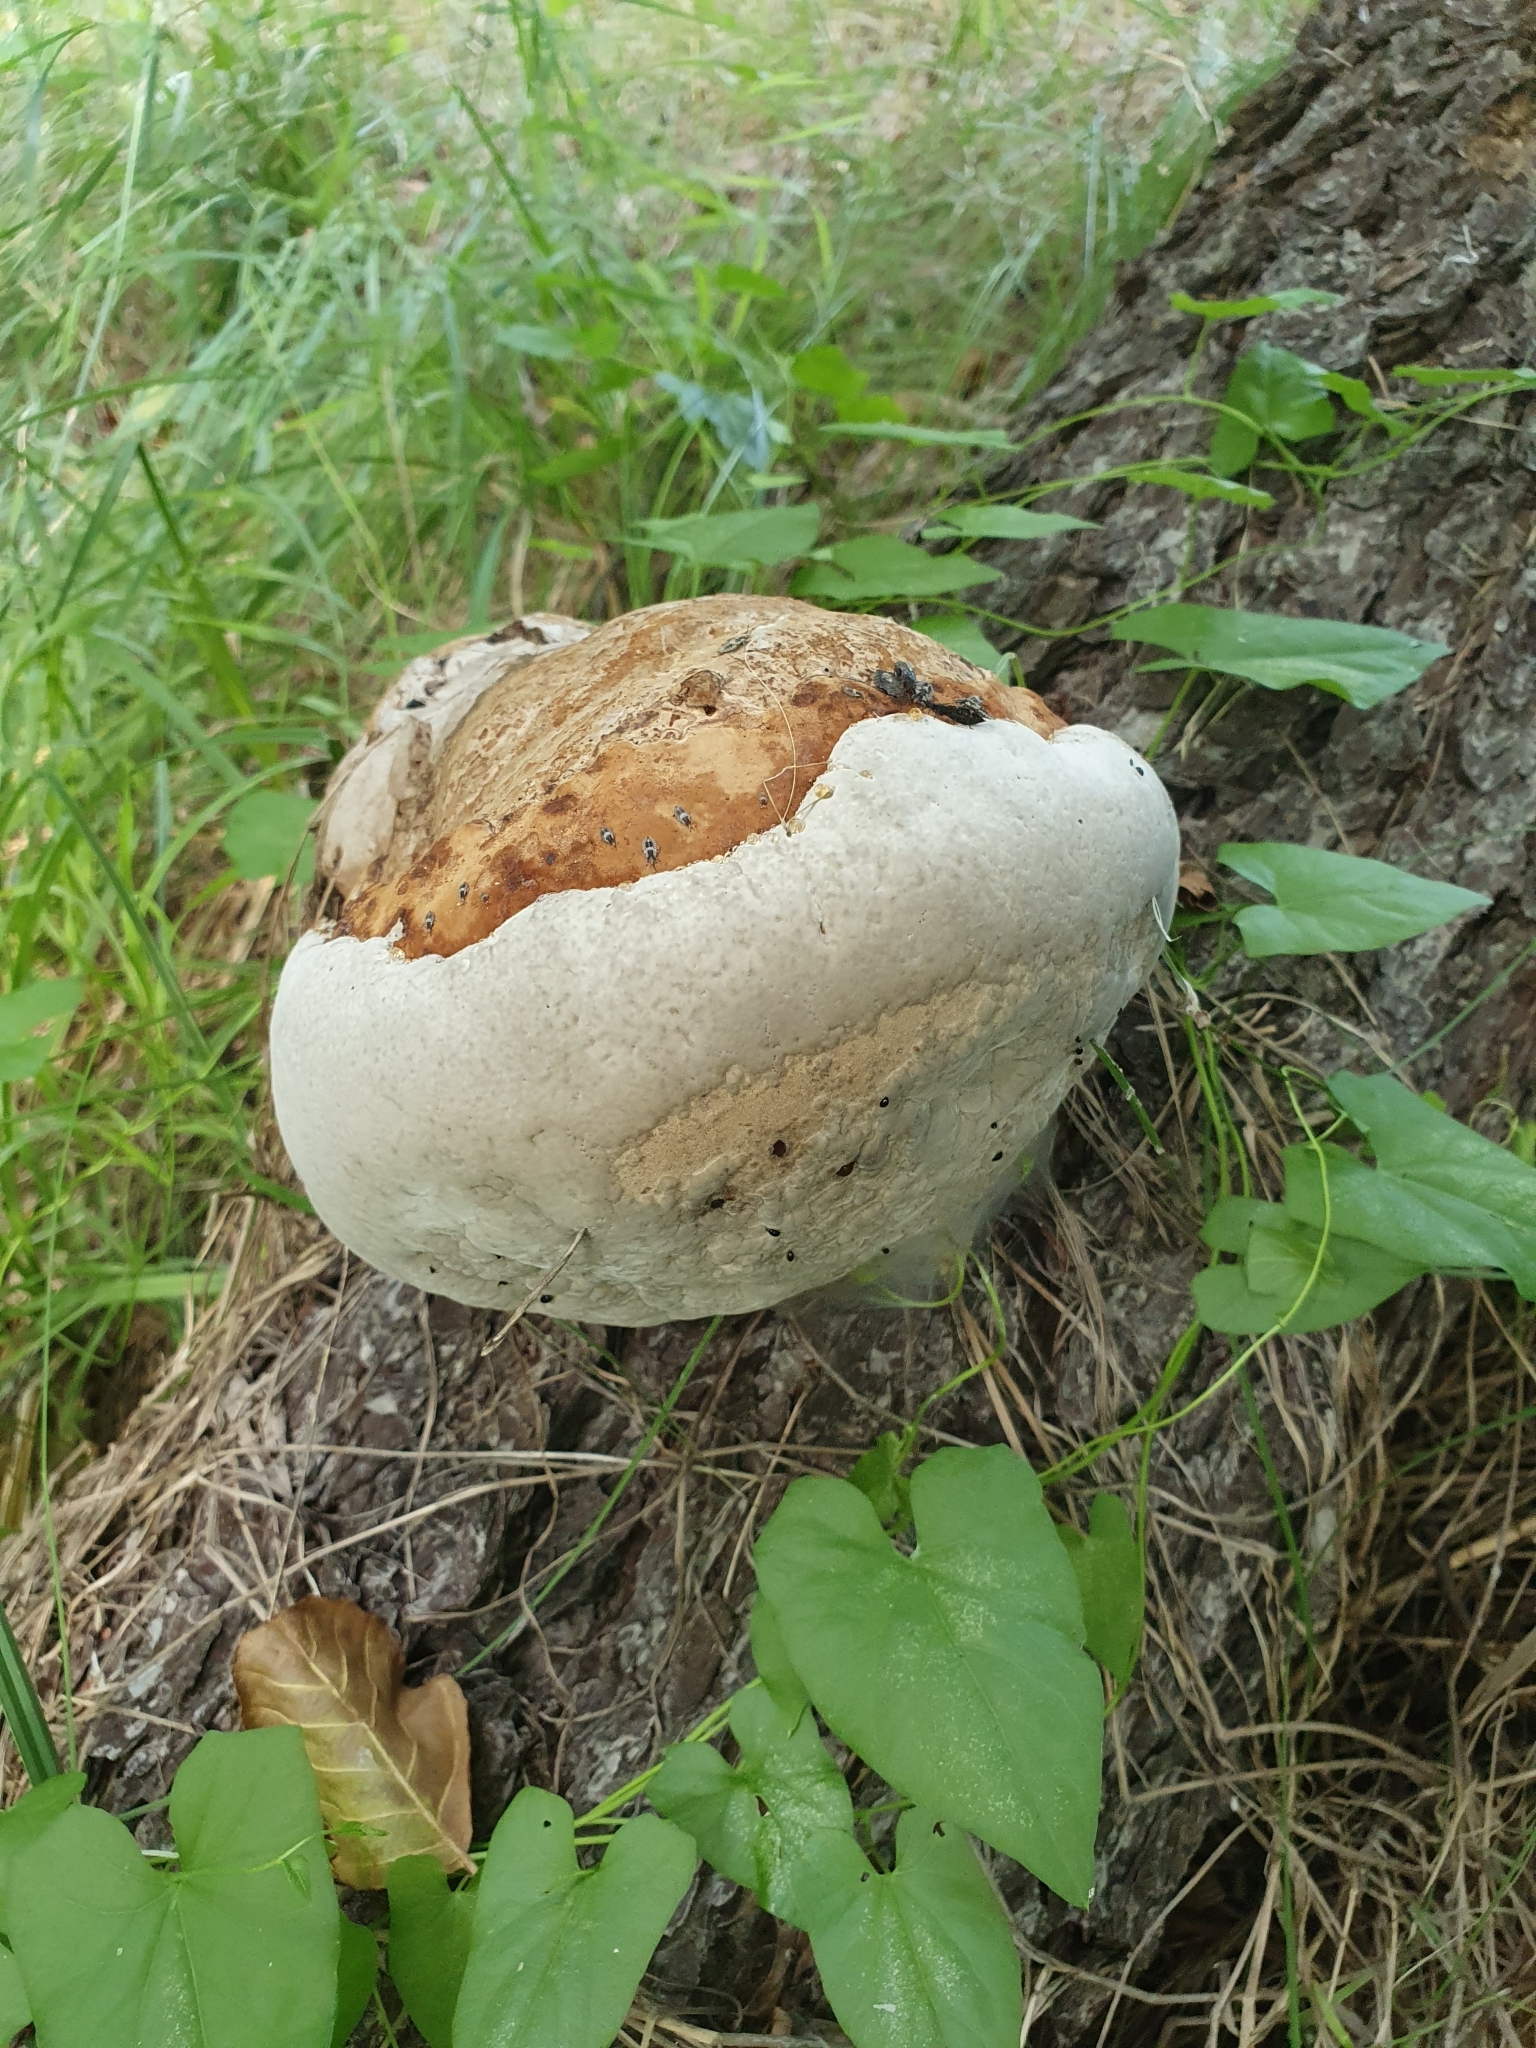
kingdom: Fungi
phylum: Basidiomycota
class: Agaricomycetes
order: Polyporales
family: Fomitopsidaceae
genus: Fomitopsis
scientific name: Fomitopsis pinicola
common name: Red-belted bracket
